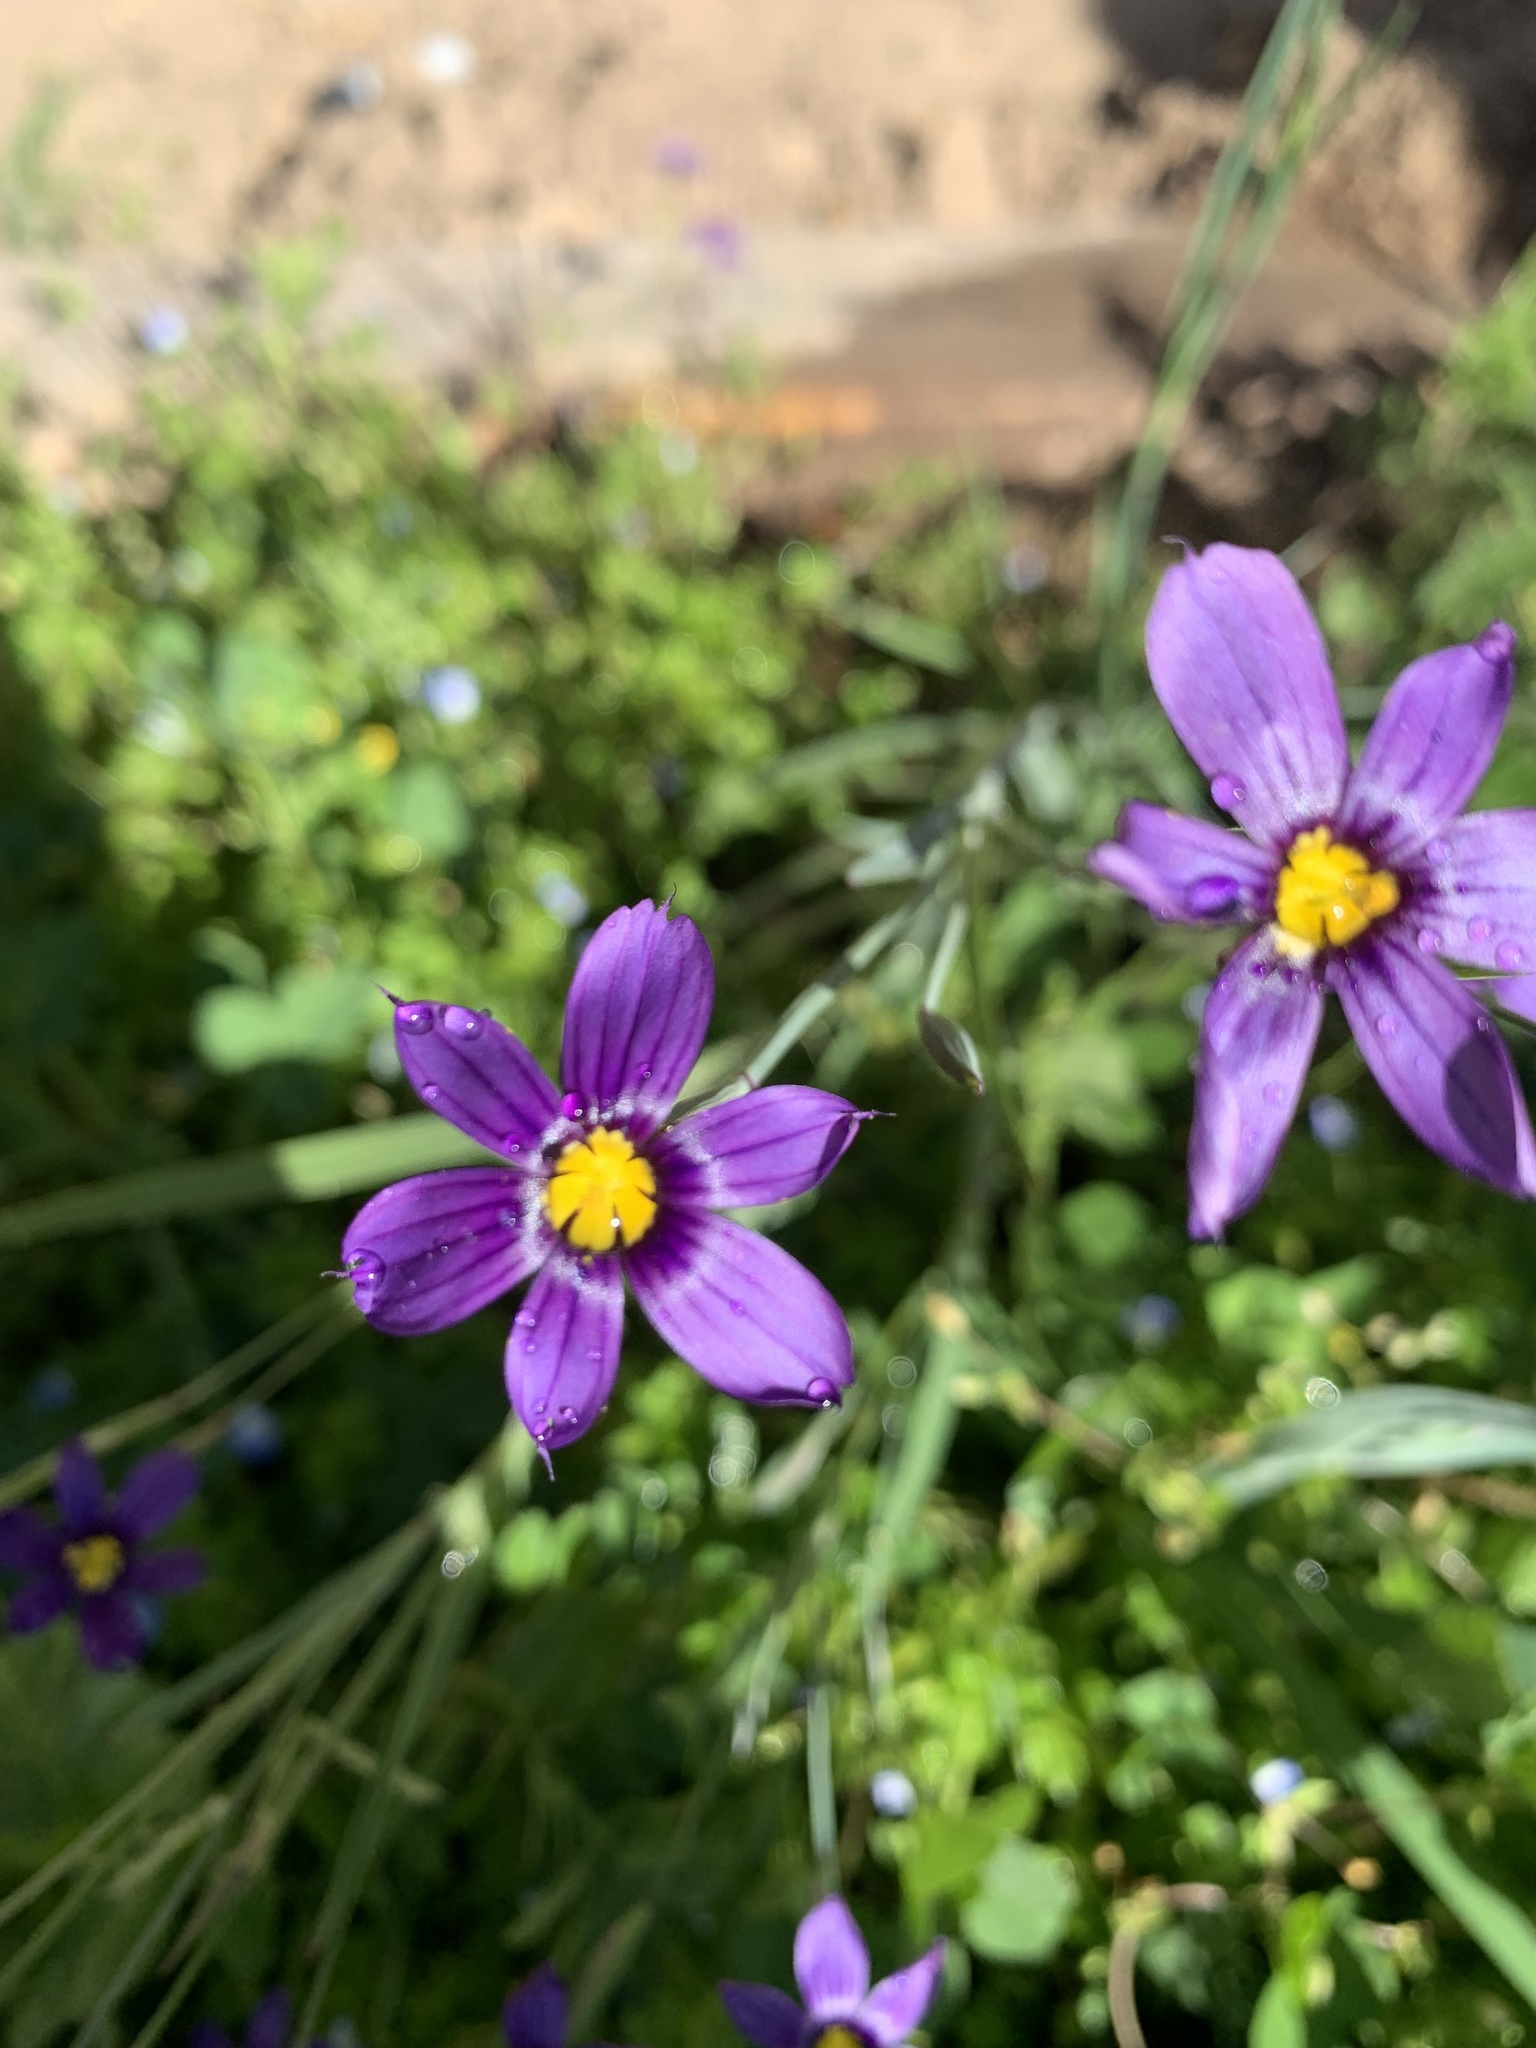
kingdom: Plantae
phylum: Tracheophyta
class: Liliopsida
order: Asparagales
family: Iridaceae
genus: Sisyrinchium
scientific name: Sisyrinchium bellum
